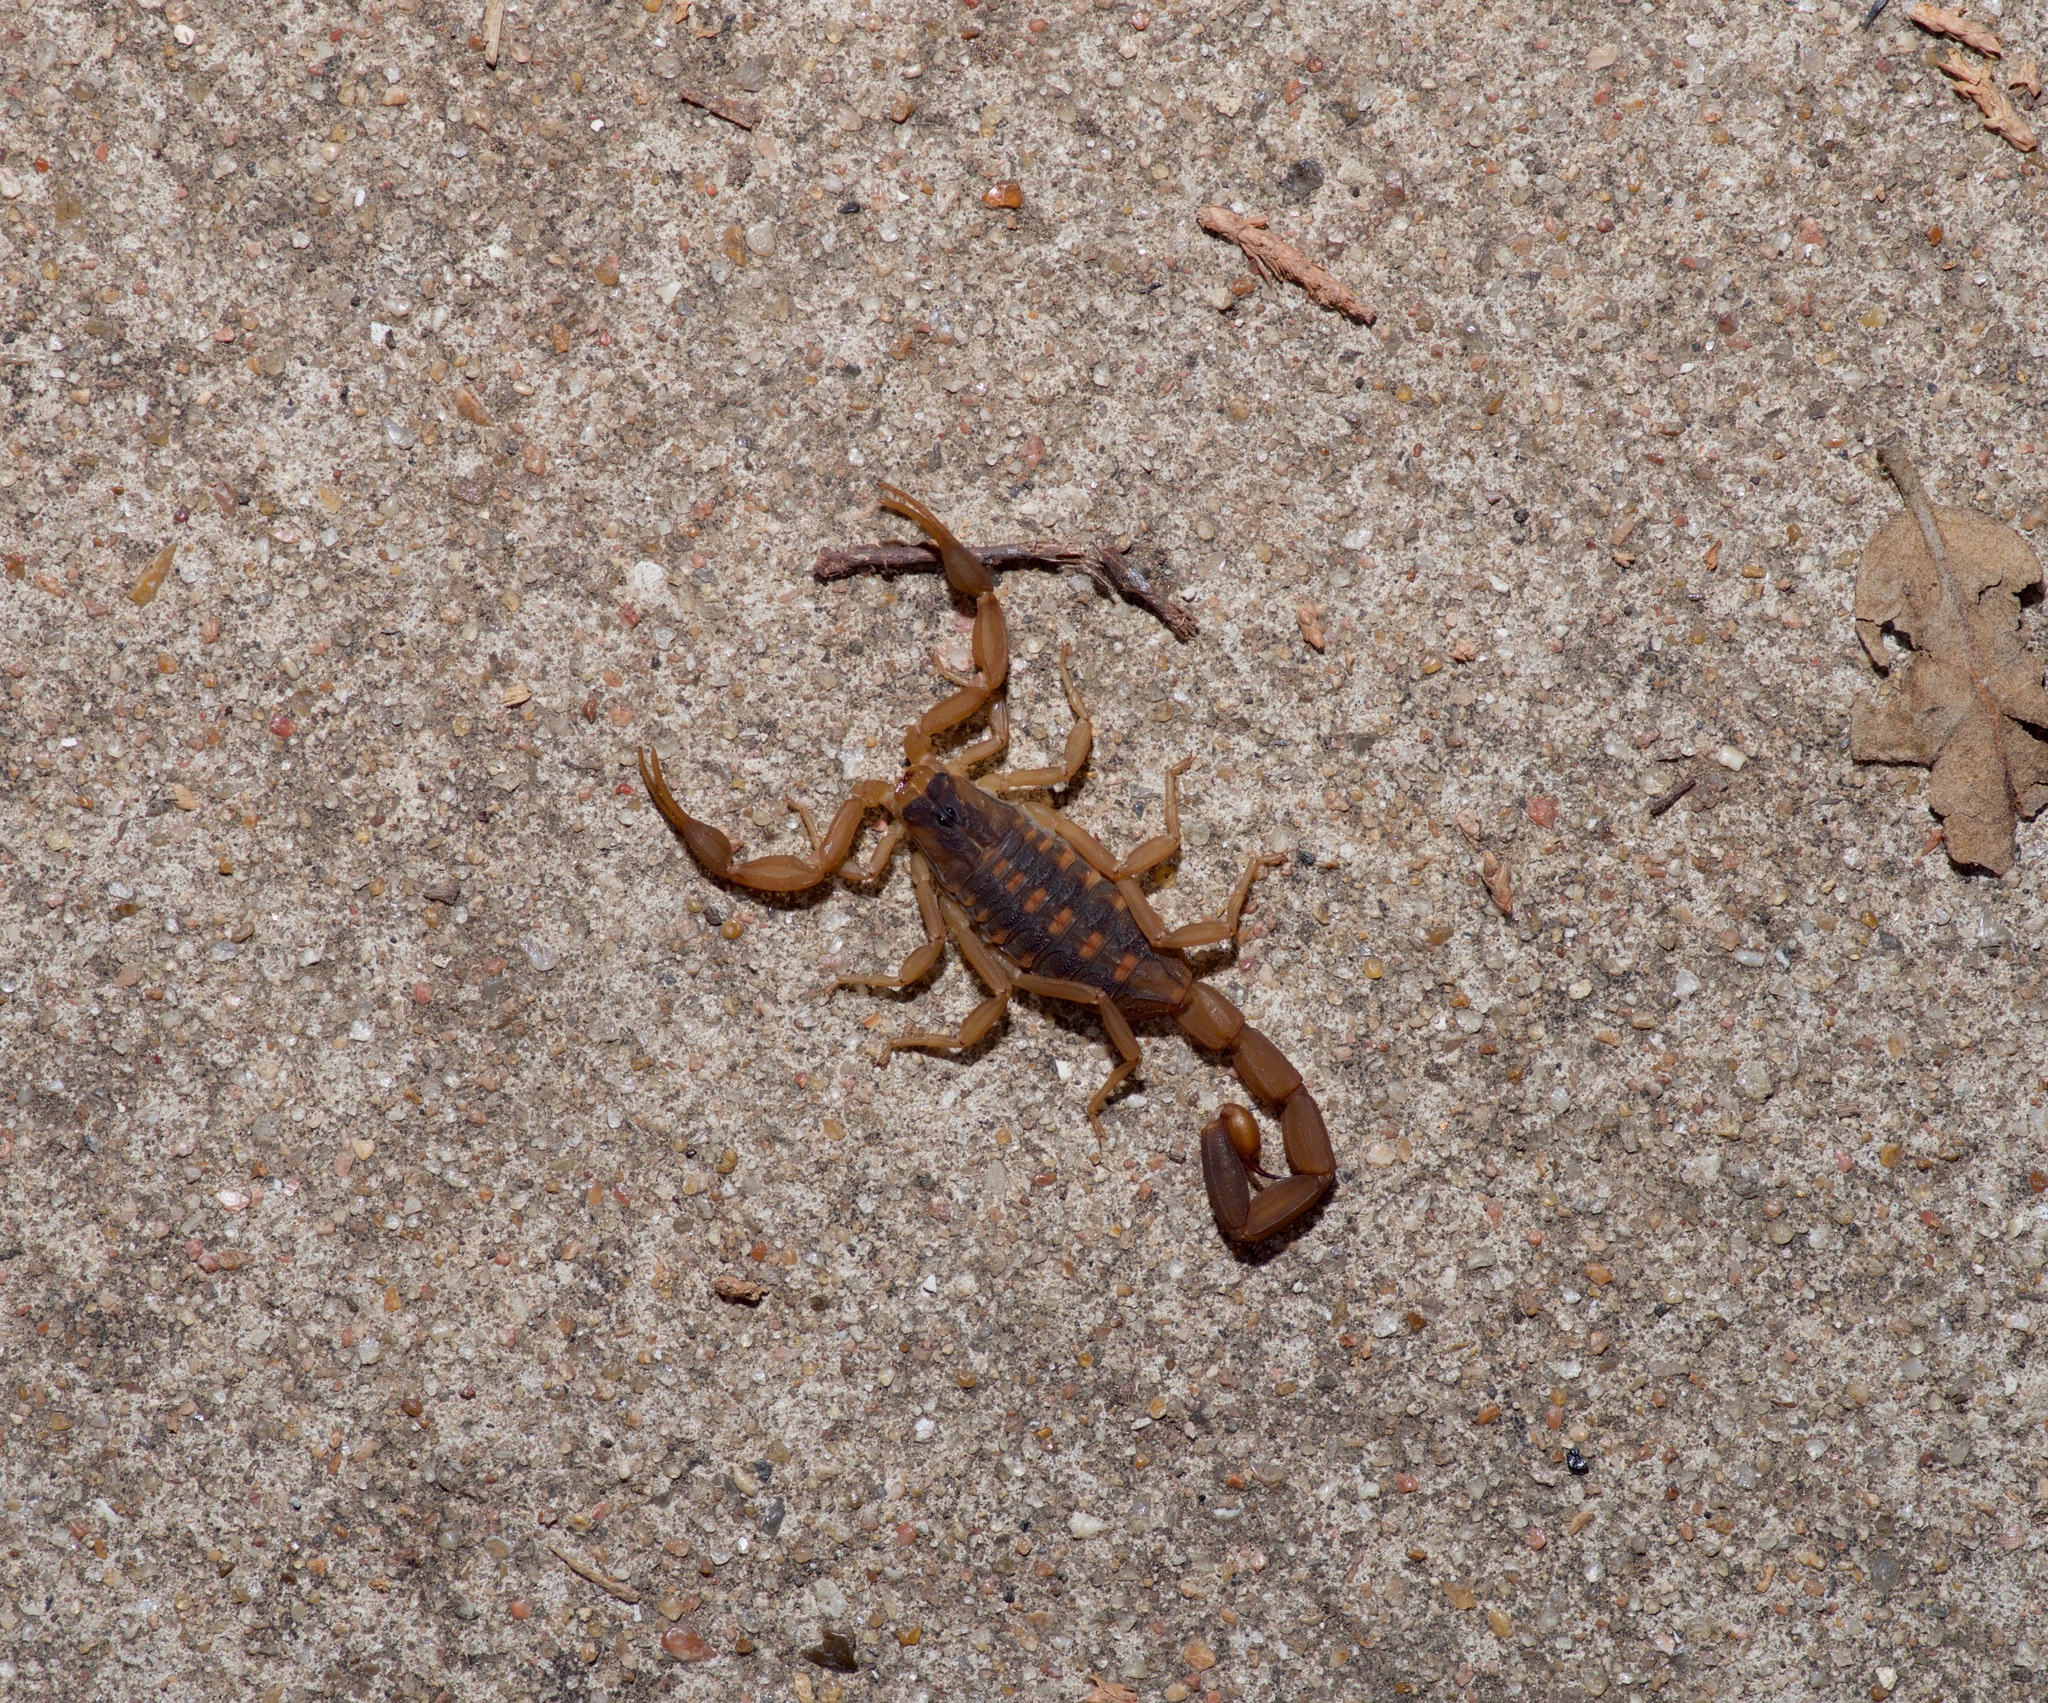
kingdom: Animalia
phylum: Arthropoda
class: Arachnida
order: Scorpiones
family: Buthidae
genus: Centruroides
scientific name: Centruroides vittatus
